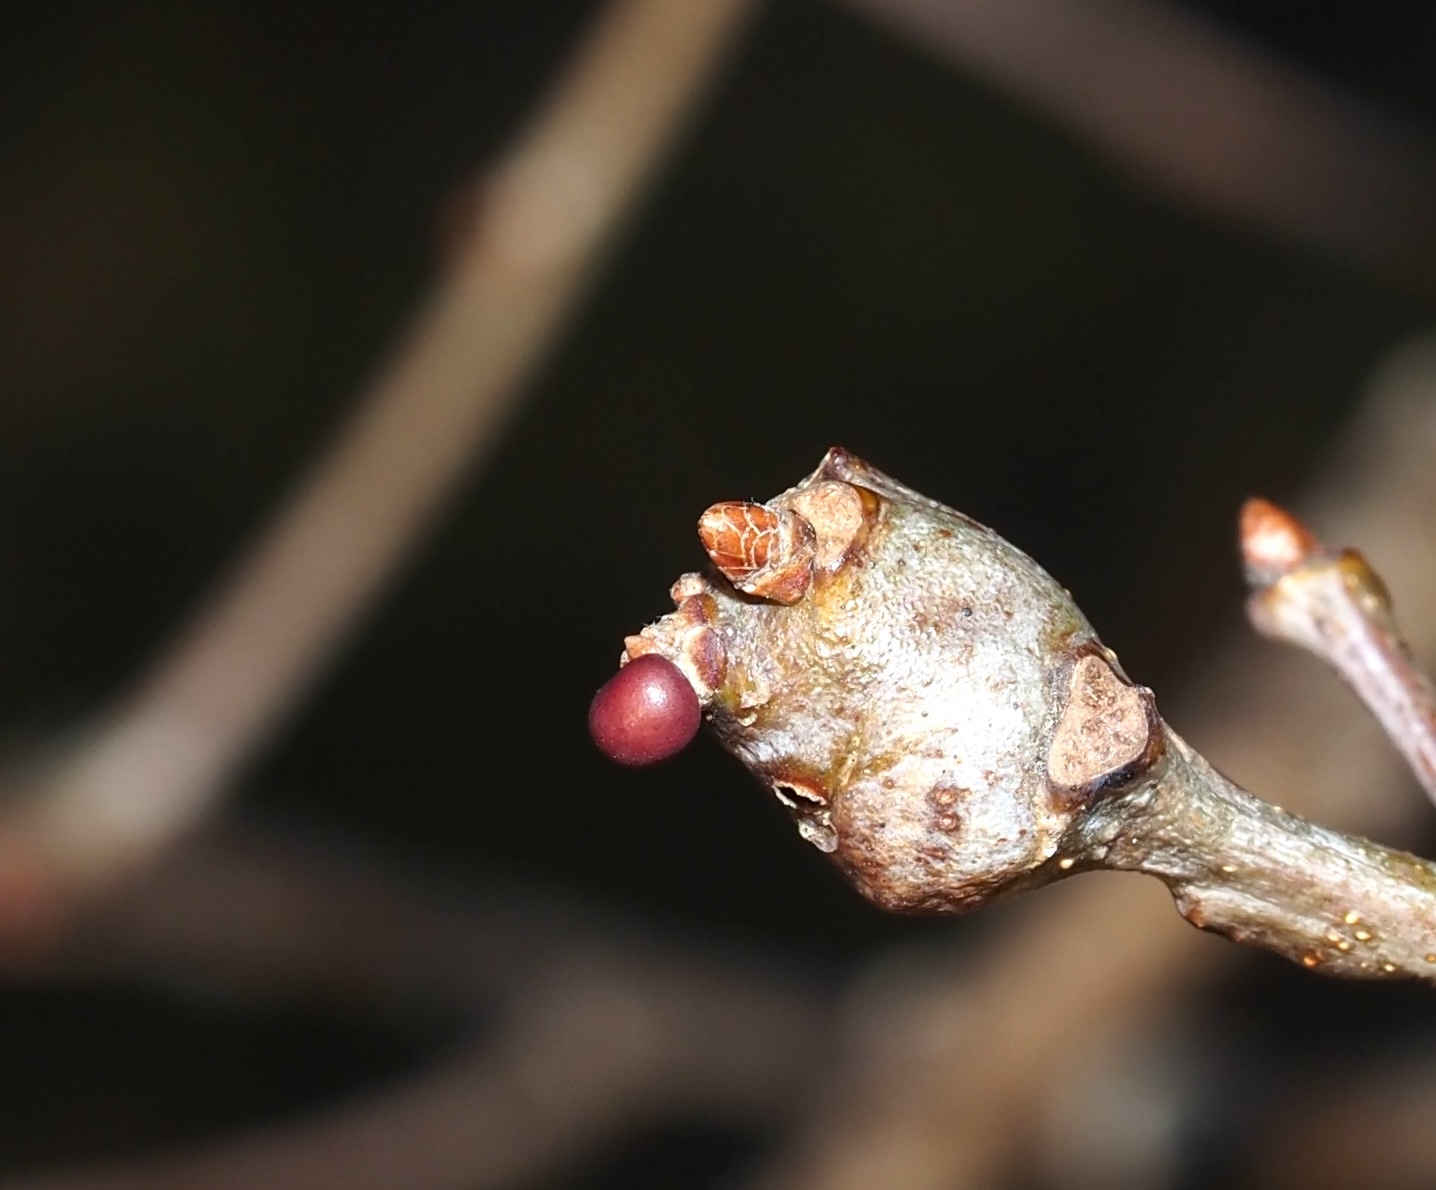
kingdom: Animalia
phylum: Arthropoda
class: Insecta
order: Hymenoptera
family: Cynipidae
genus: Neuroterus
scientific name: Neuroterus
